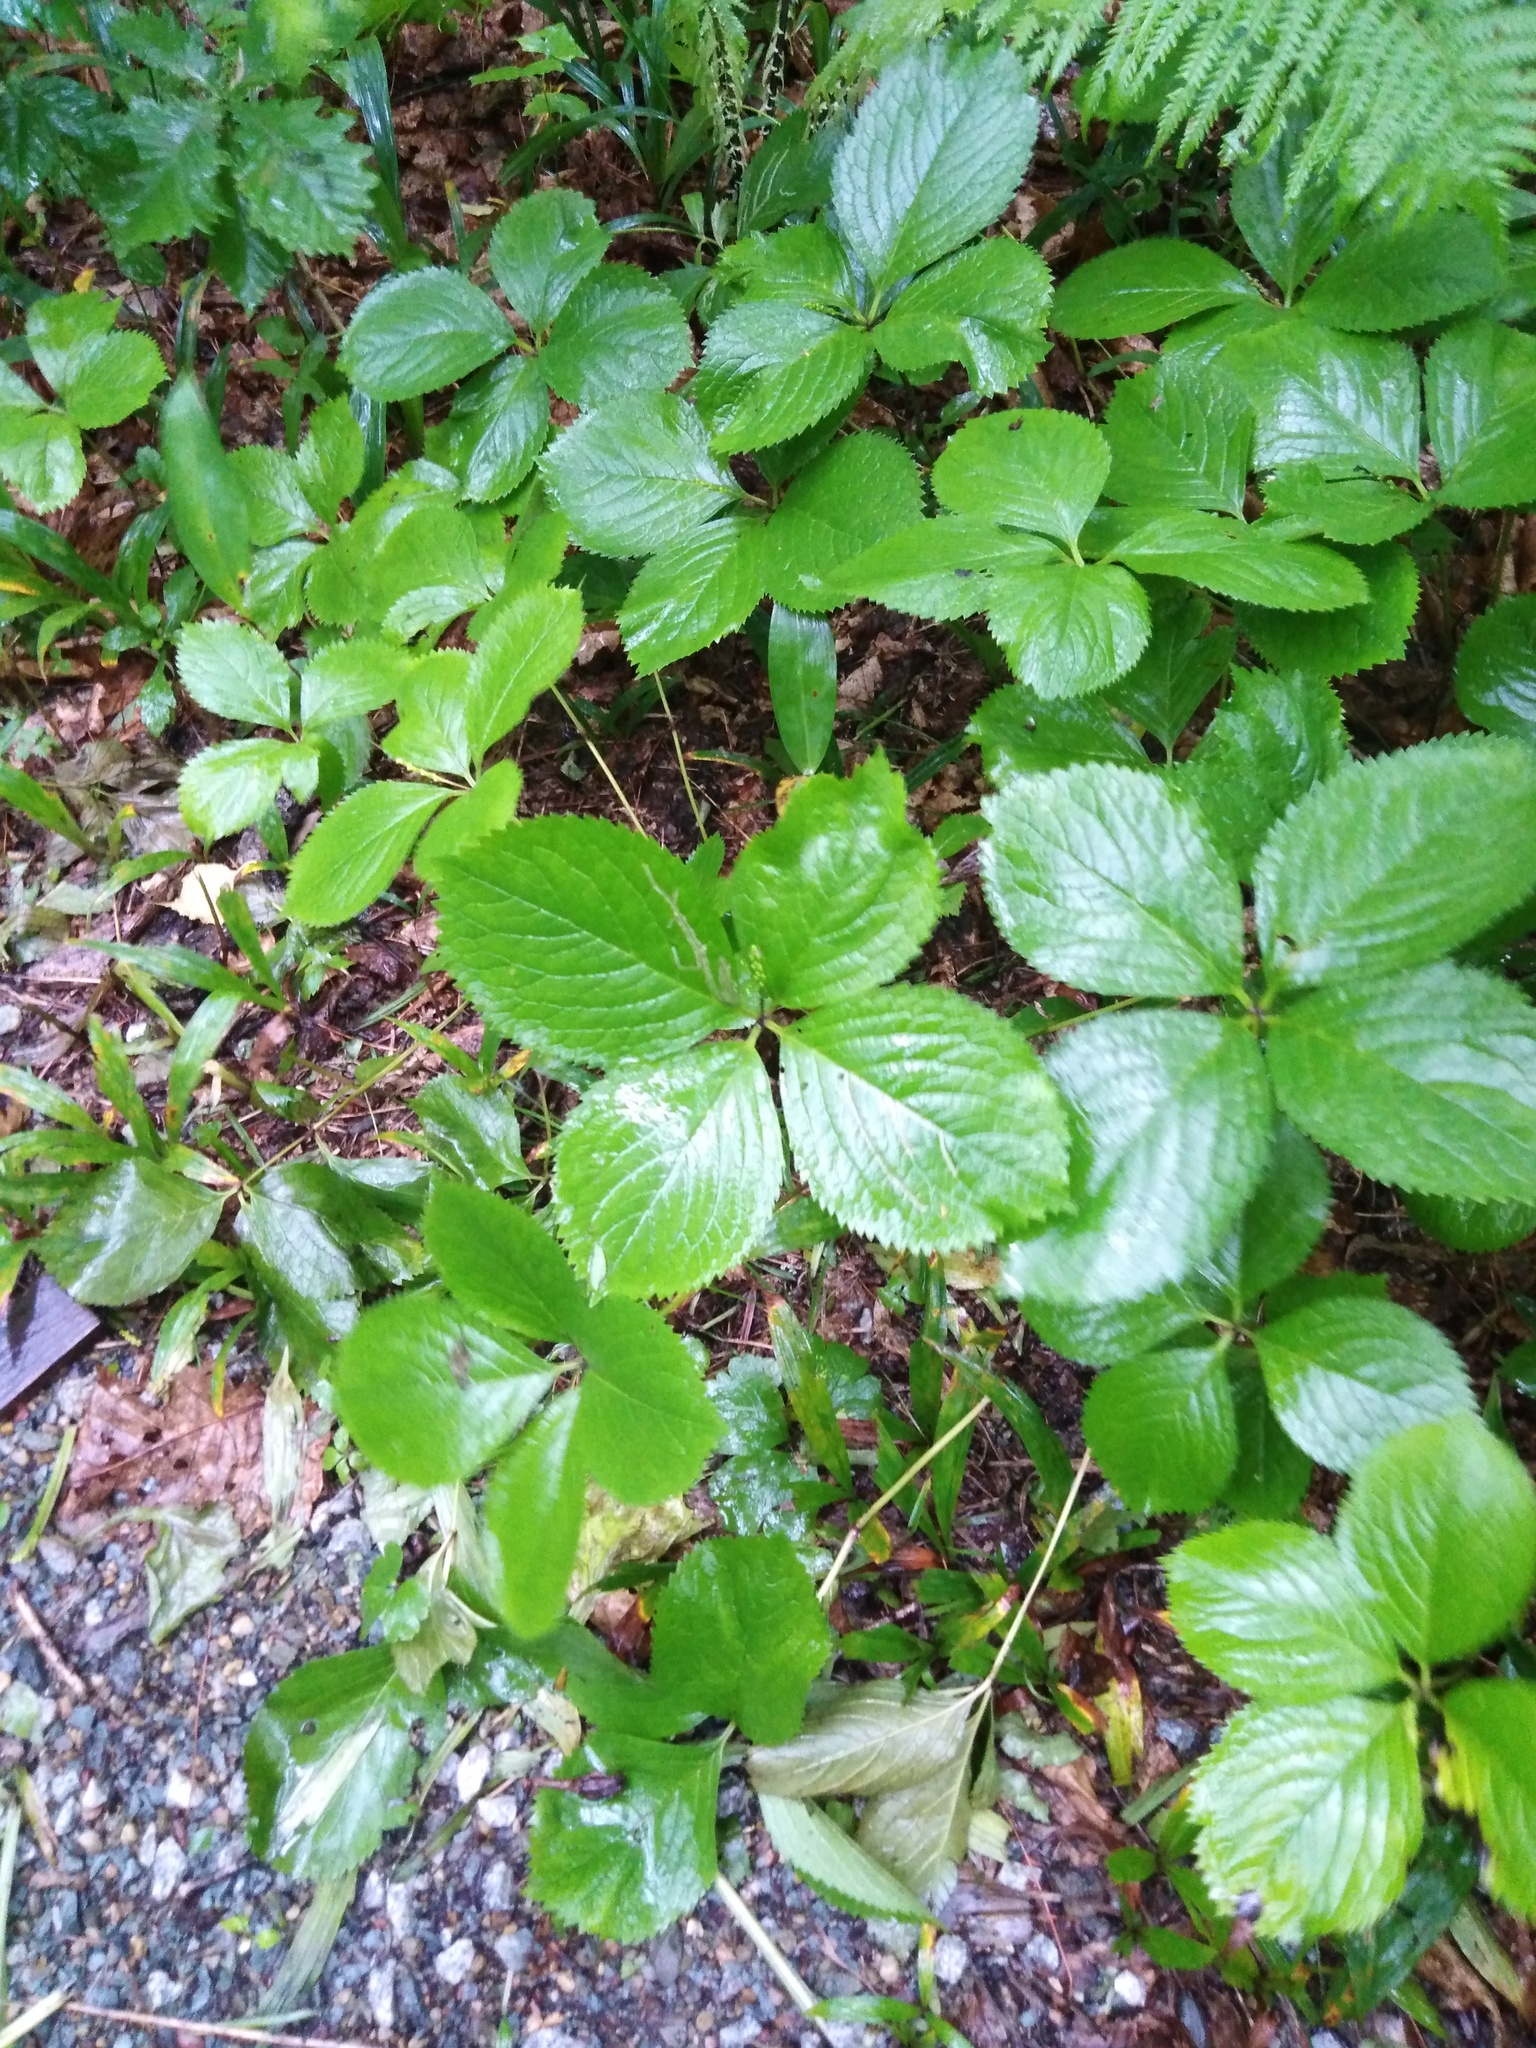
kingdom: Plantae
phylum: Tracheophyta
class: Magnoliopsida
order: Chloranthales
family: Chloranthaceae
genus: Chloranthus
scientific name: Chloranthus quadrifolius
